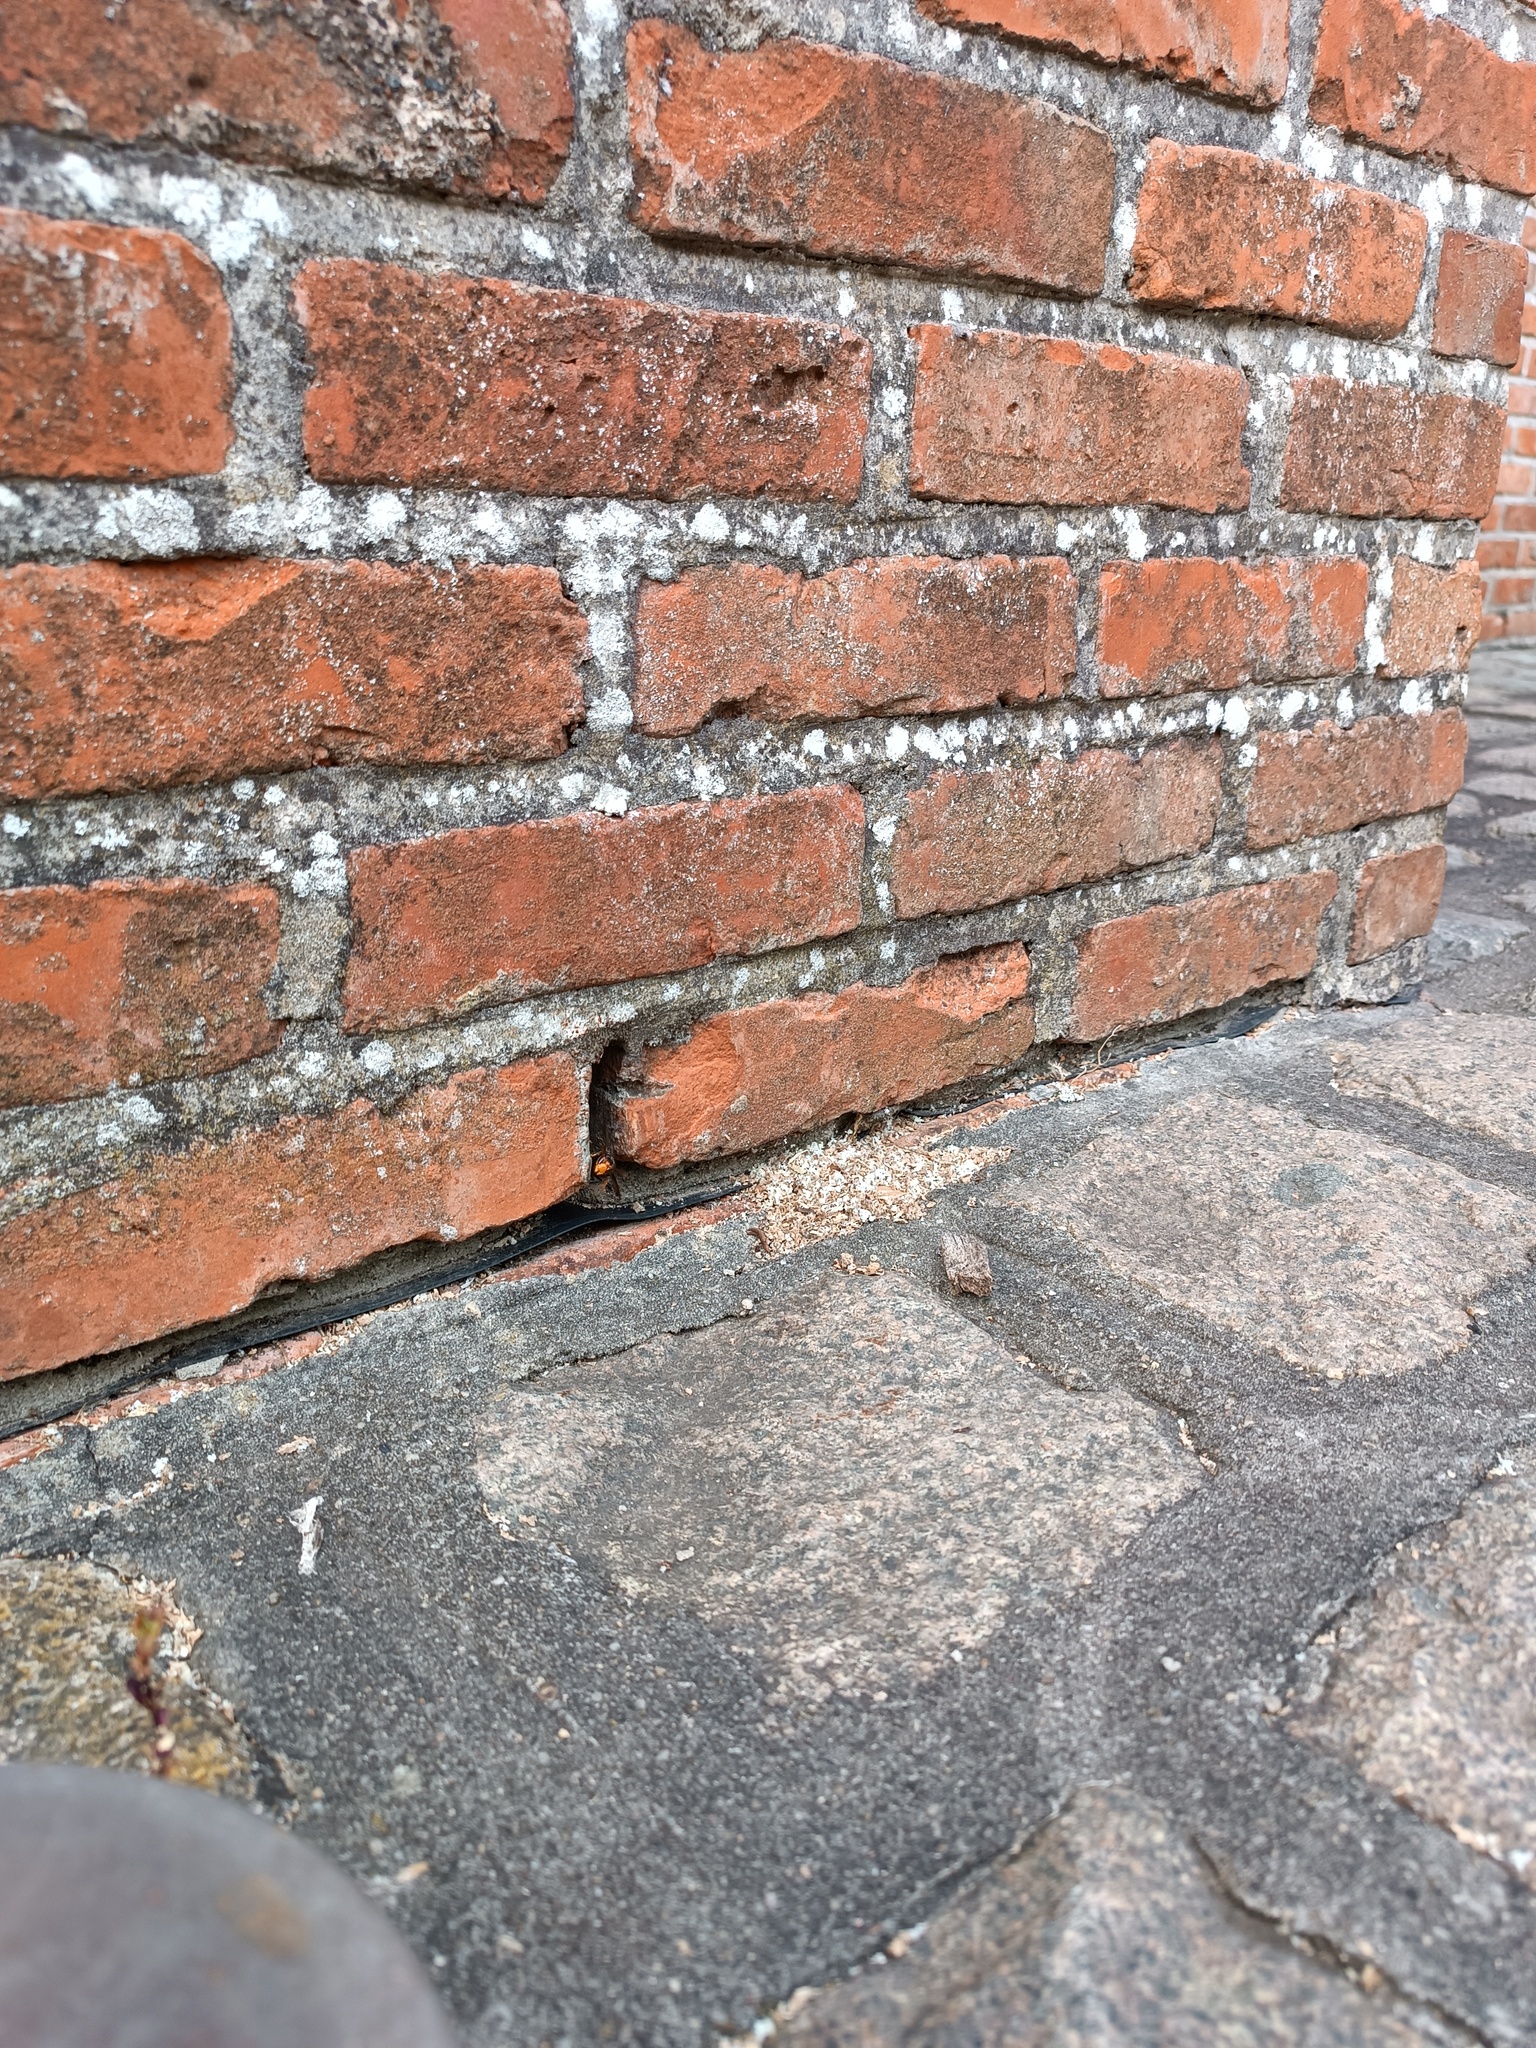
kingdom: Animalia
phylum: Arthropoda
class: Insecta
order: Hymenoptera
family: Vespidae
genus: Vespa
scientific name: Vespa velutina
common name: Asian hornet
